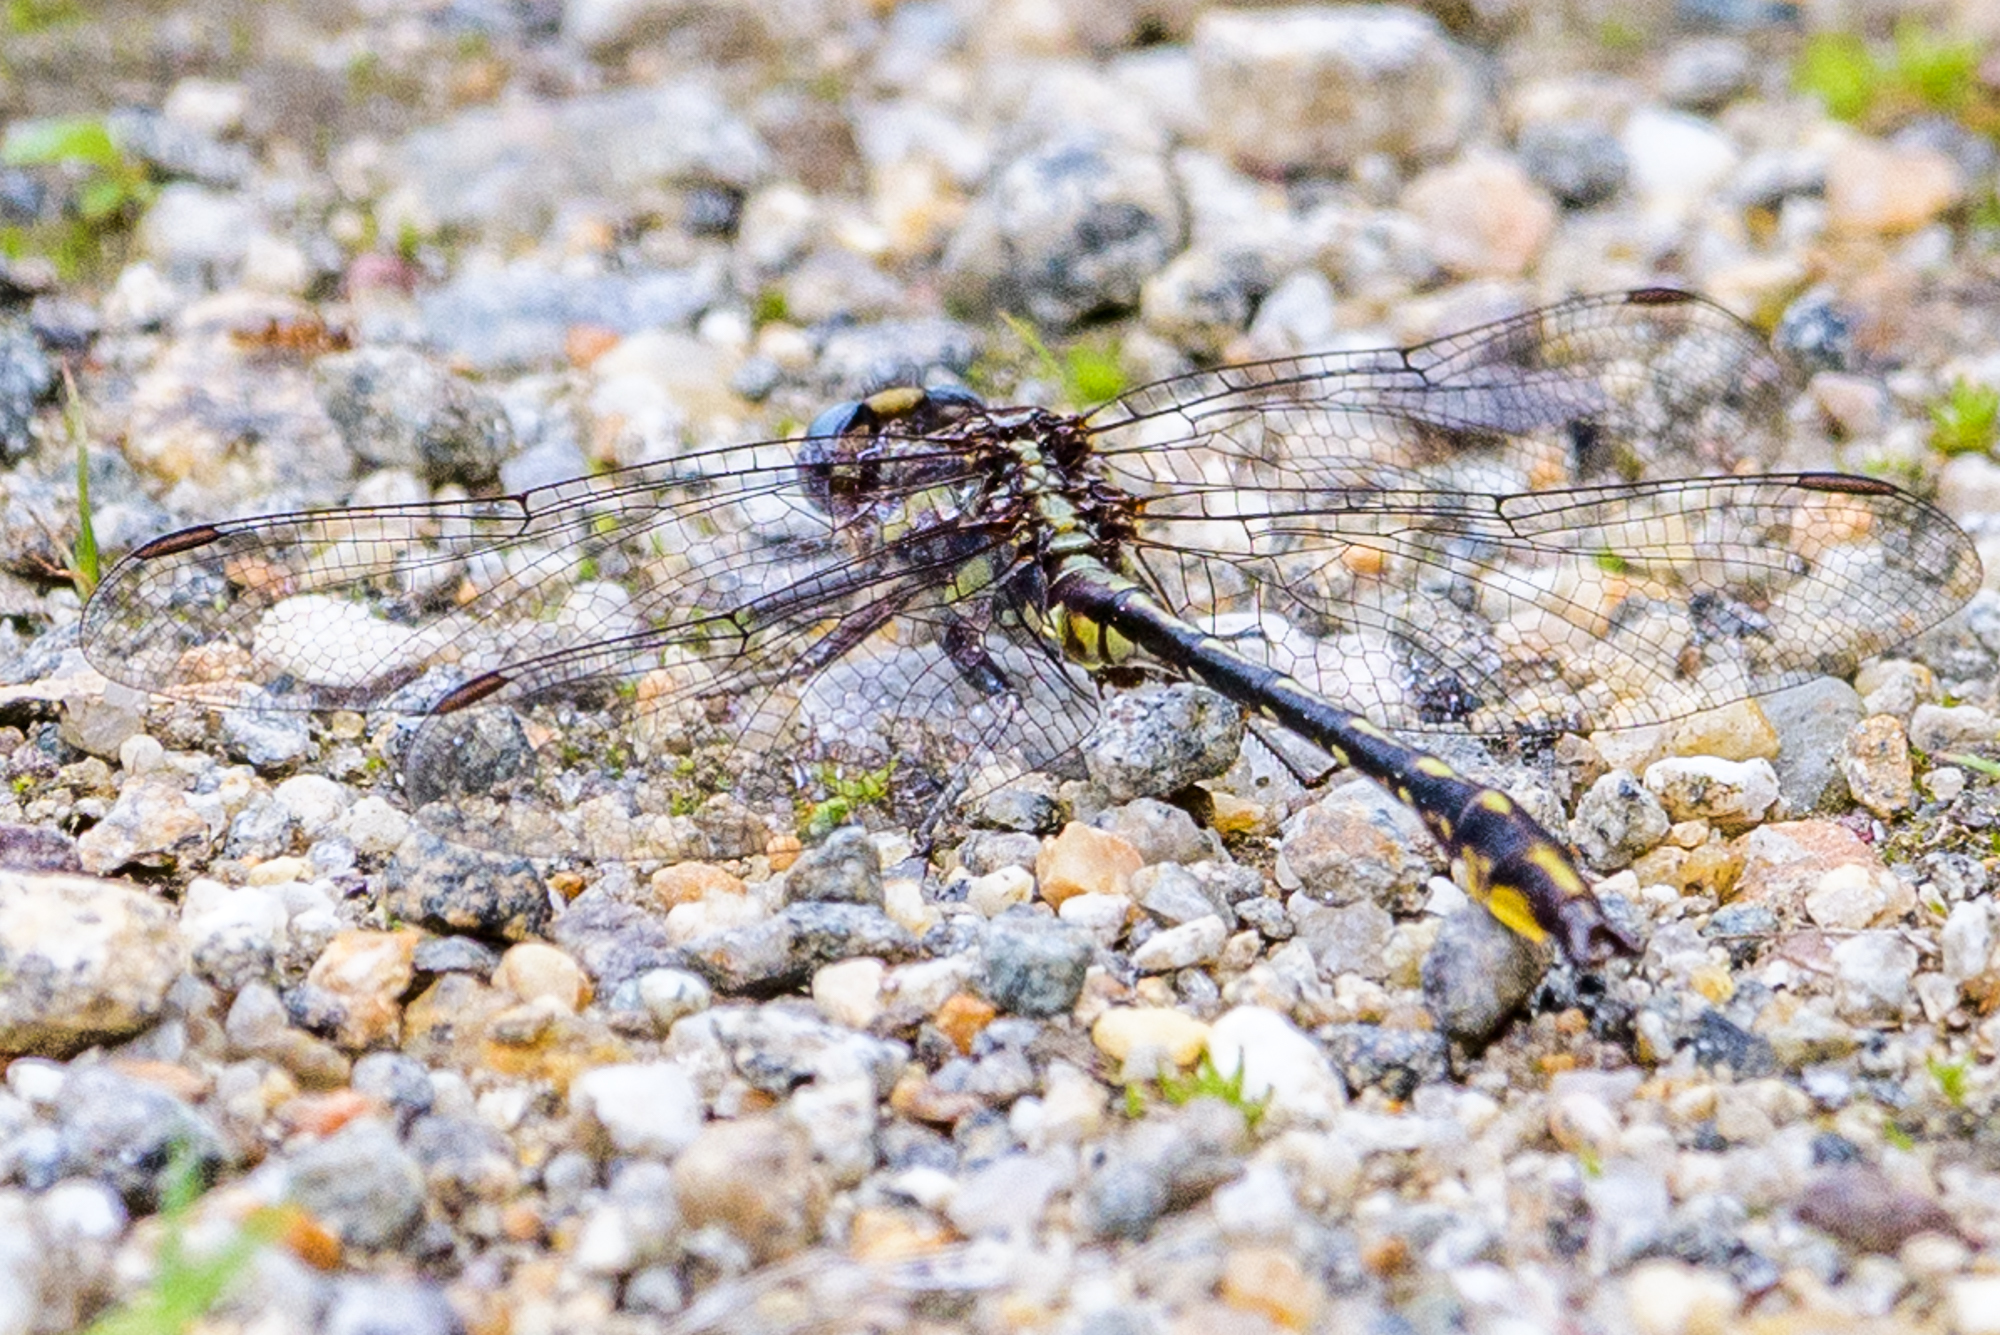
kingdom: Animalia
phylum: Arthropoda
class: Insecta
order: Odonata
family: Gomphidae
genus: Phanogomphus
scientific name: Phanogomphus exilis
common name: Lancet clubtail
